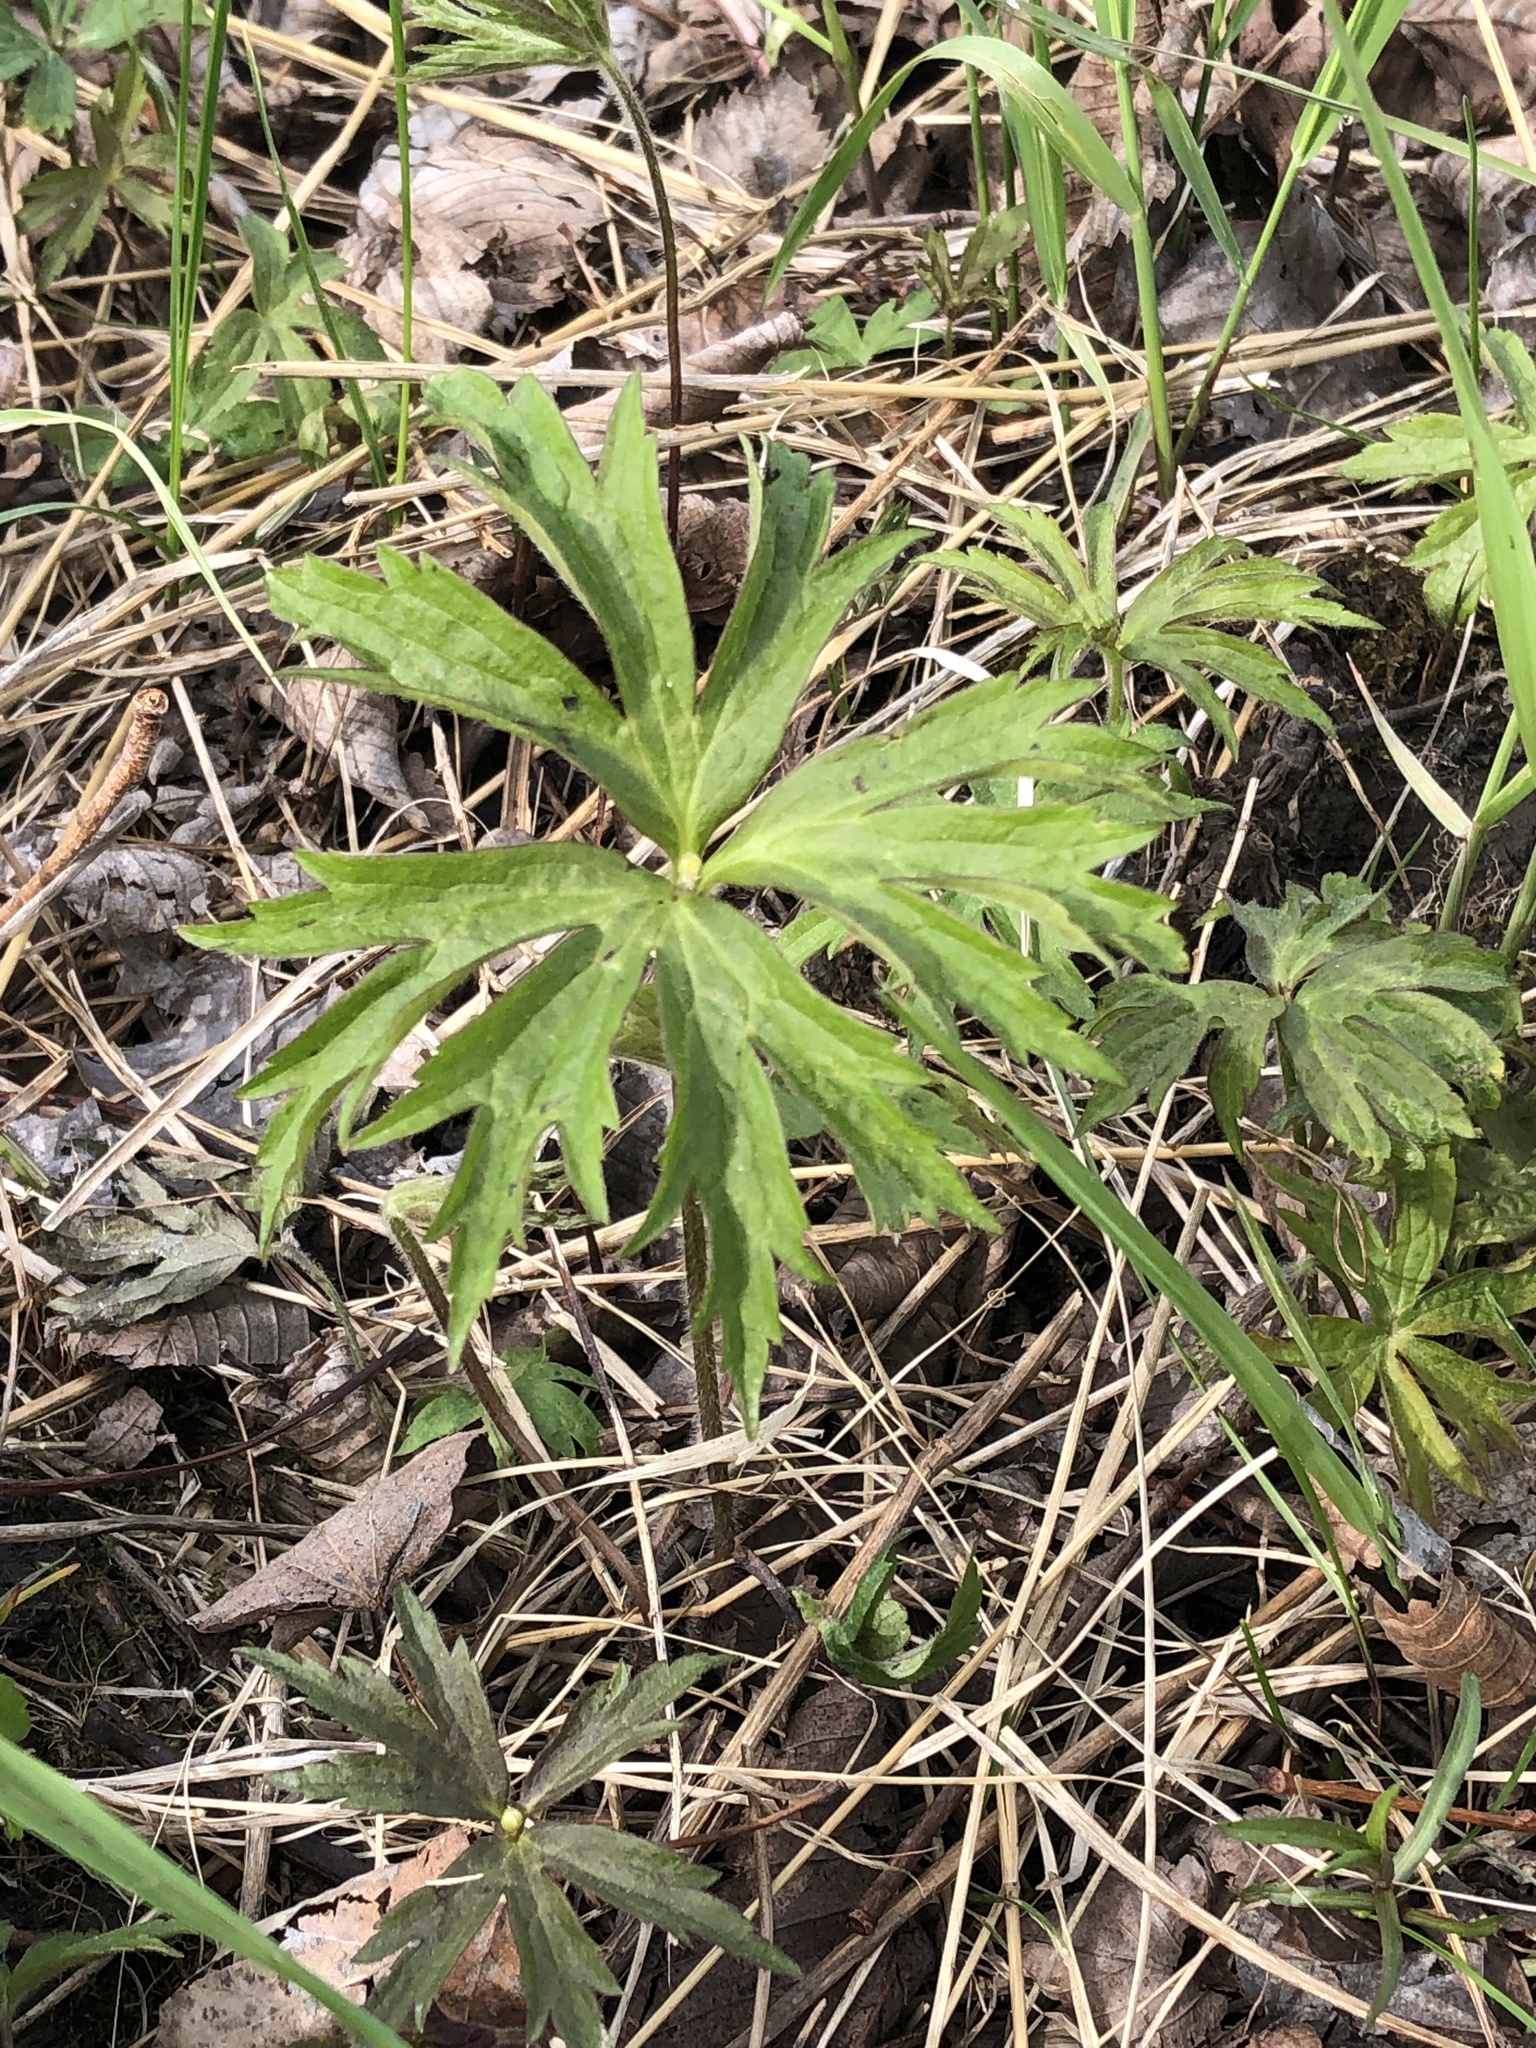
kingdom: Plantae
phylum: Tracheophyta
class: Magnoliopsida
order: Ranunculales
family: Ranunculaceae
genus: Anemonastrum
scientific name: Anemonastrum canadense
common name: Canada anemone
